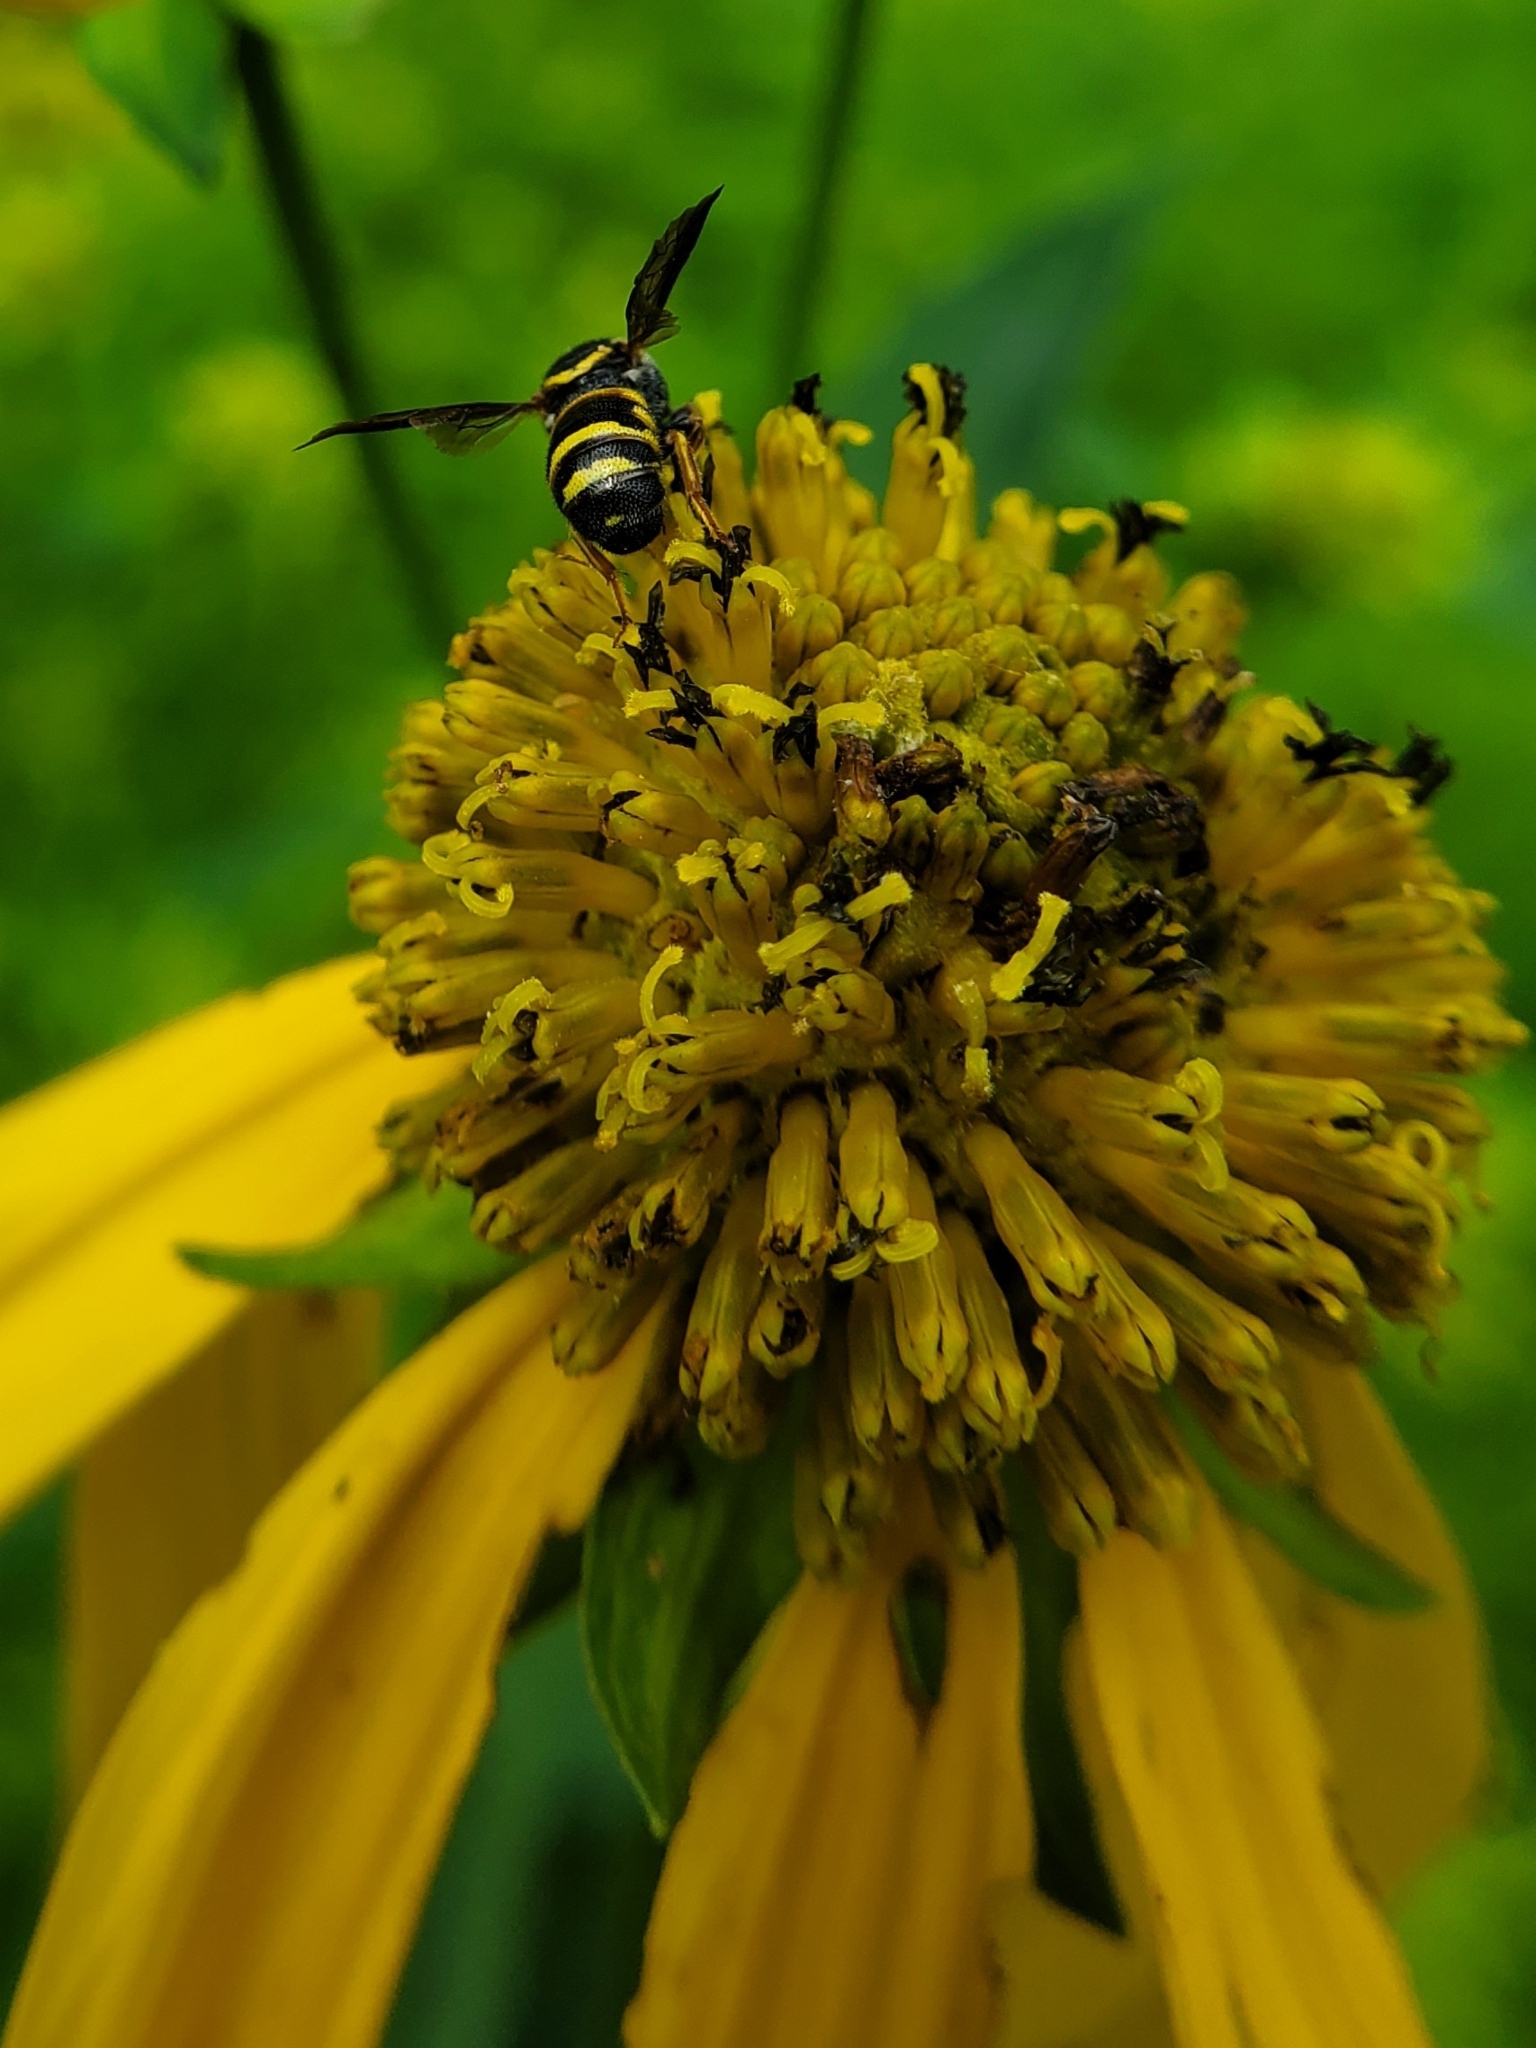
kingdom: Animalia
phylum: Arthropoda
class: Insecta
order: Hymenoptera
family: Megachilidae
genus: Stelis
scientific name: Stelis louisae
